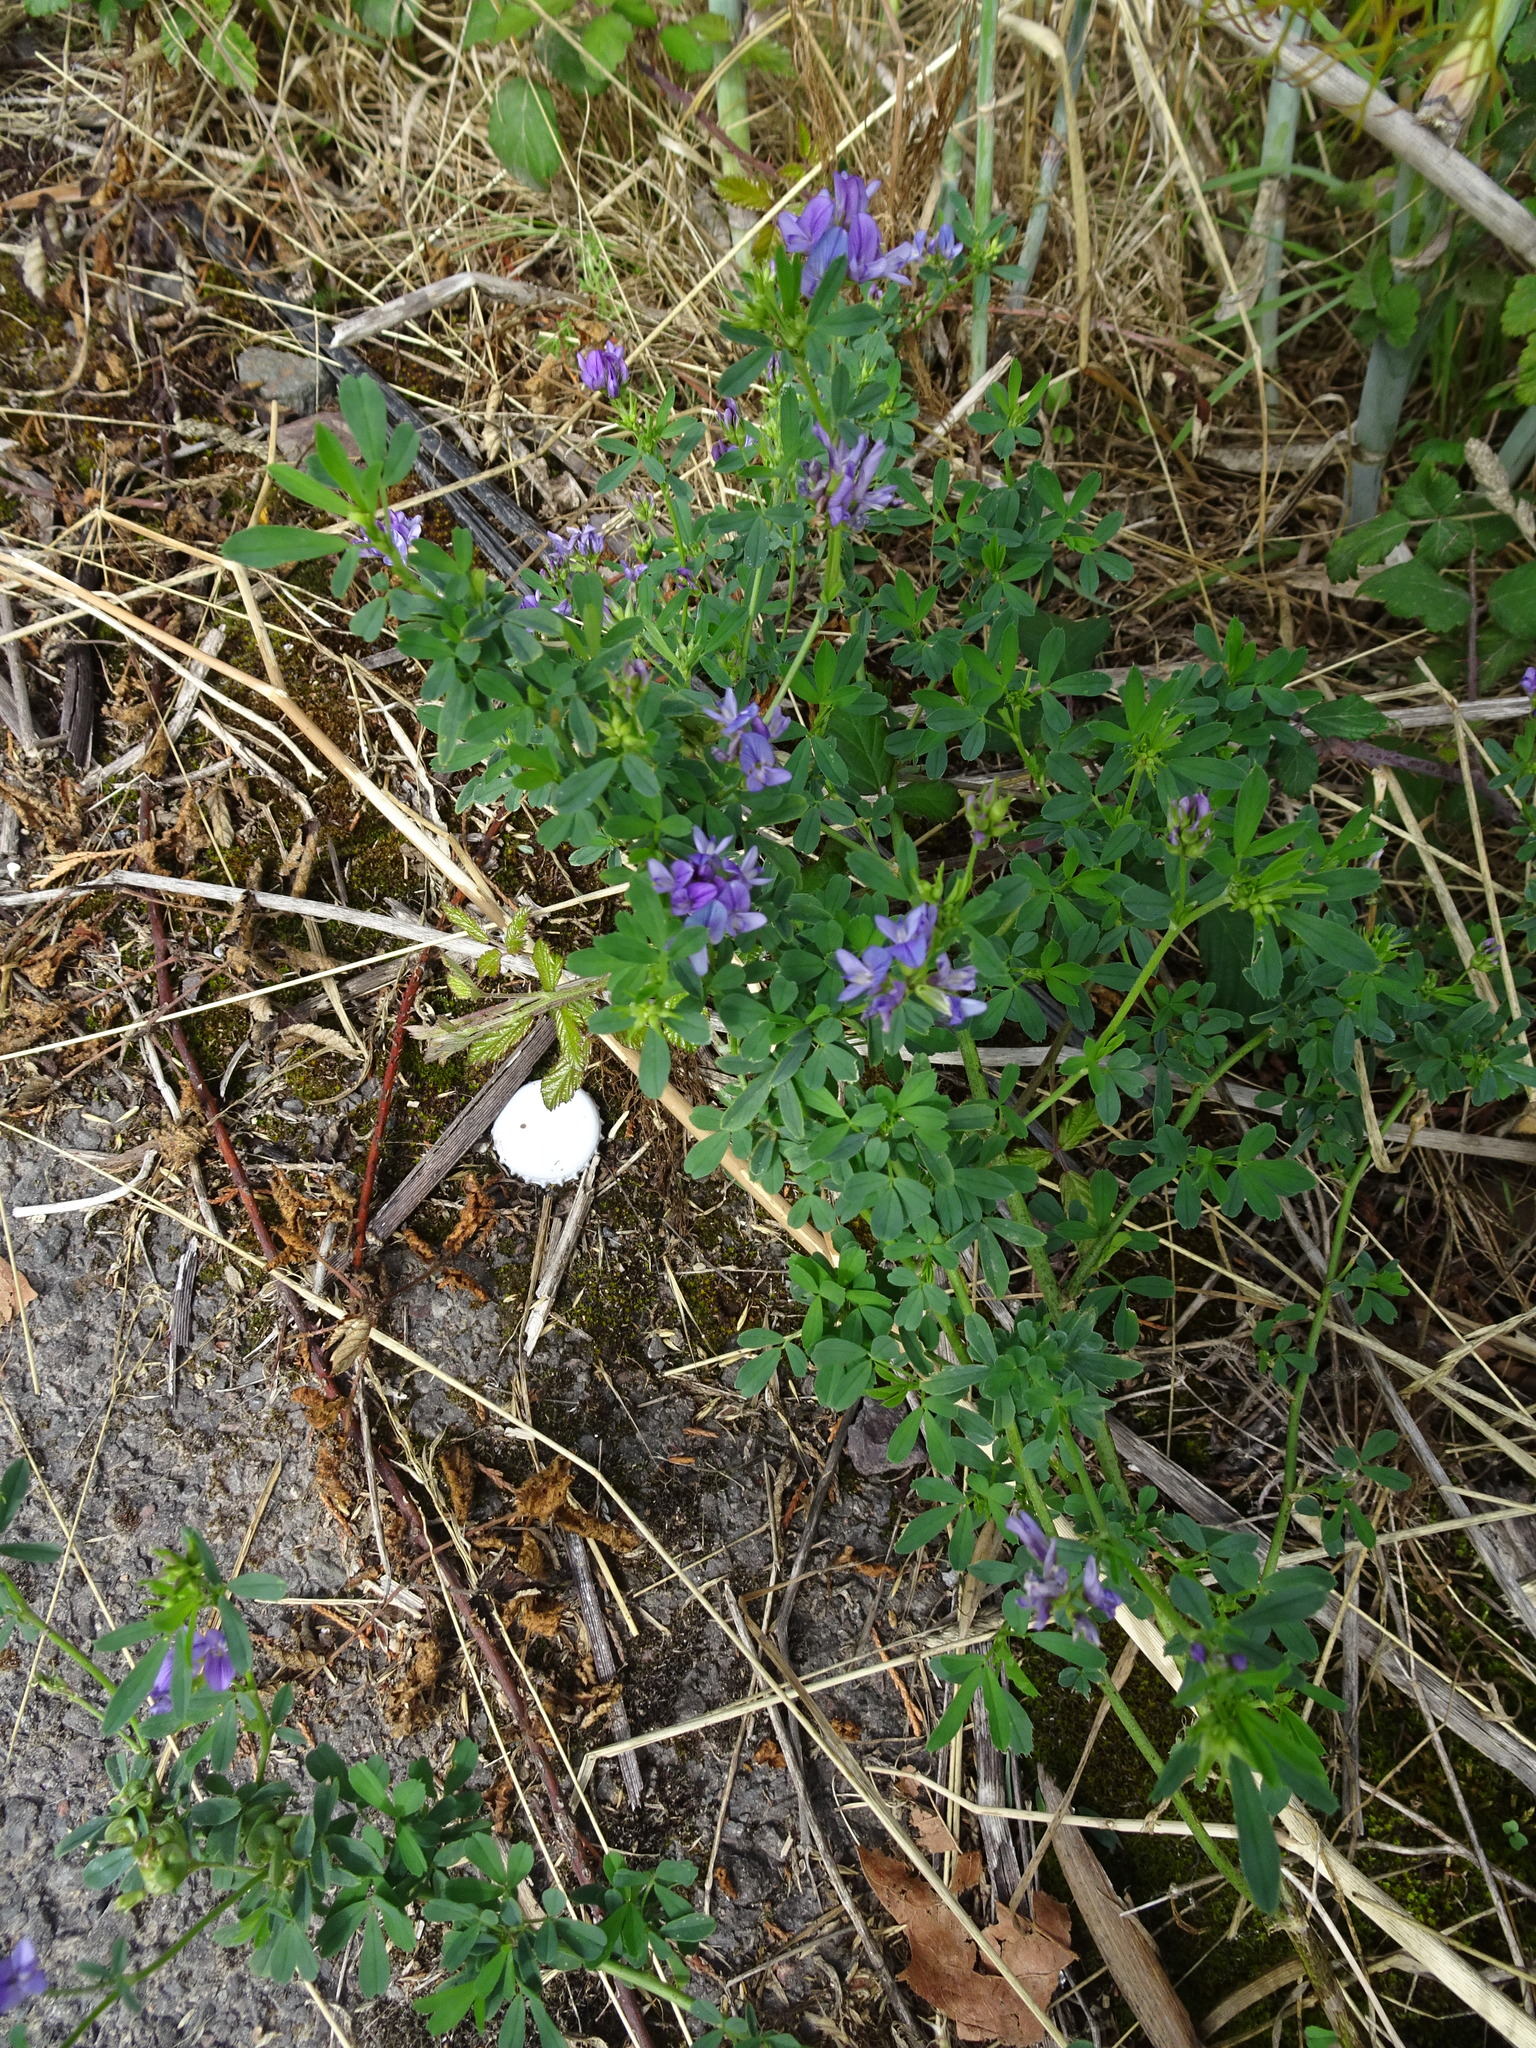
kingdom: Plantae
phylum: Tracheophyta
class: Magnoliopsida
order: Fabales
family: Fabaceae
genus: Medicago
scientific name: Medicago sativa
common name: Alfalfa
